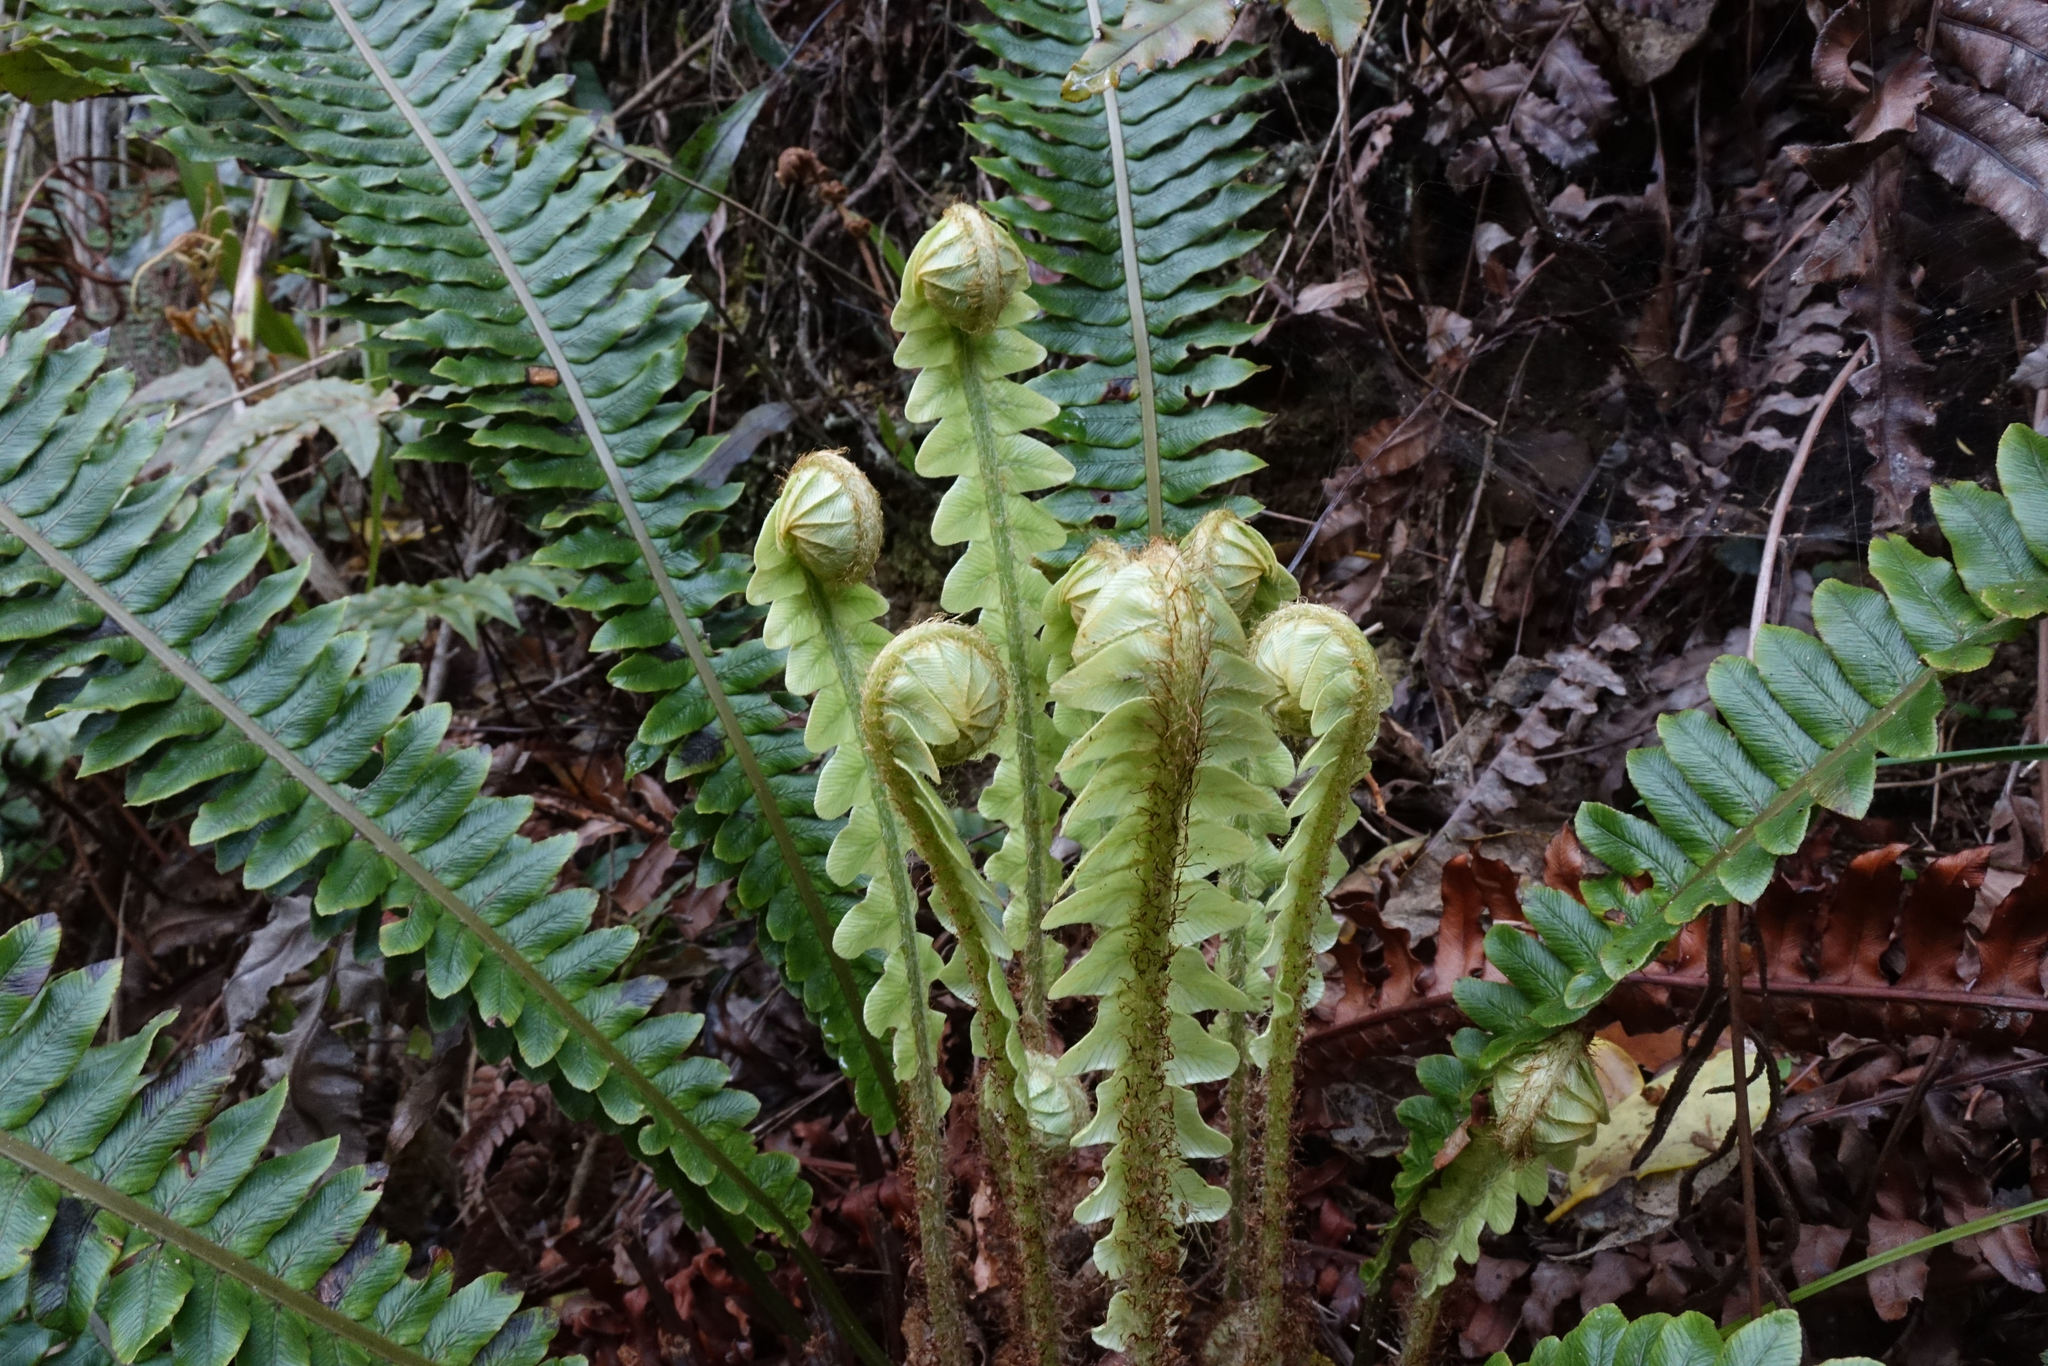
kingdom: Plantae
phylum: Tracheophyta
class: Polypodiopsida
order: Polypodiales
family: Blechnaceae
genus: Lomaria
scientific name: Lomaria discolor
